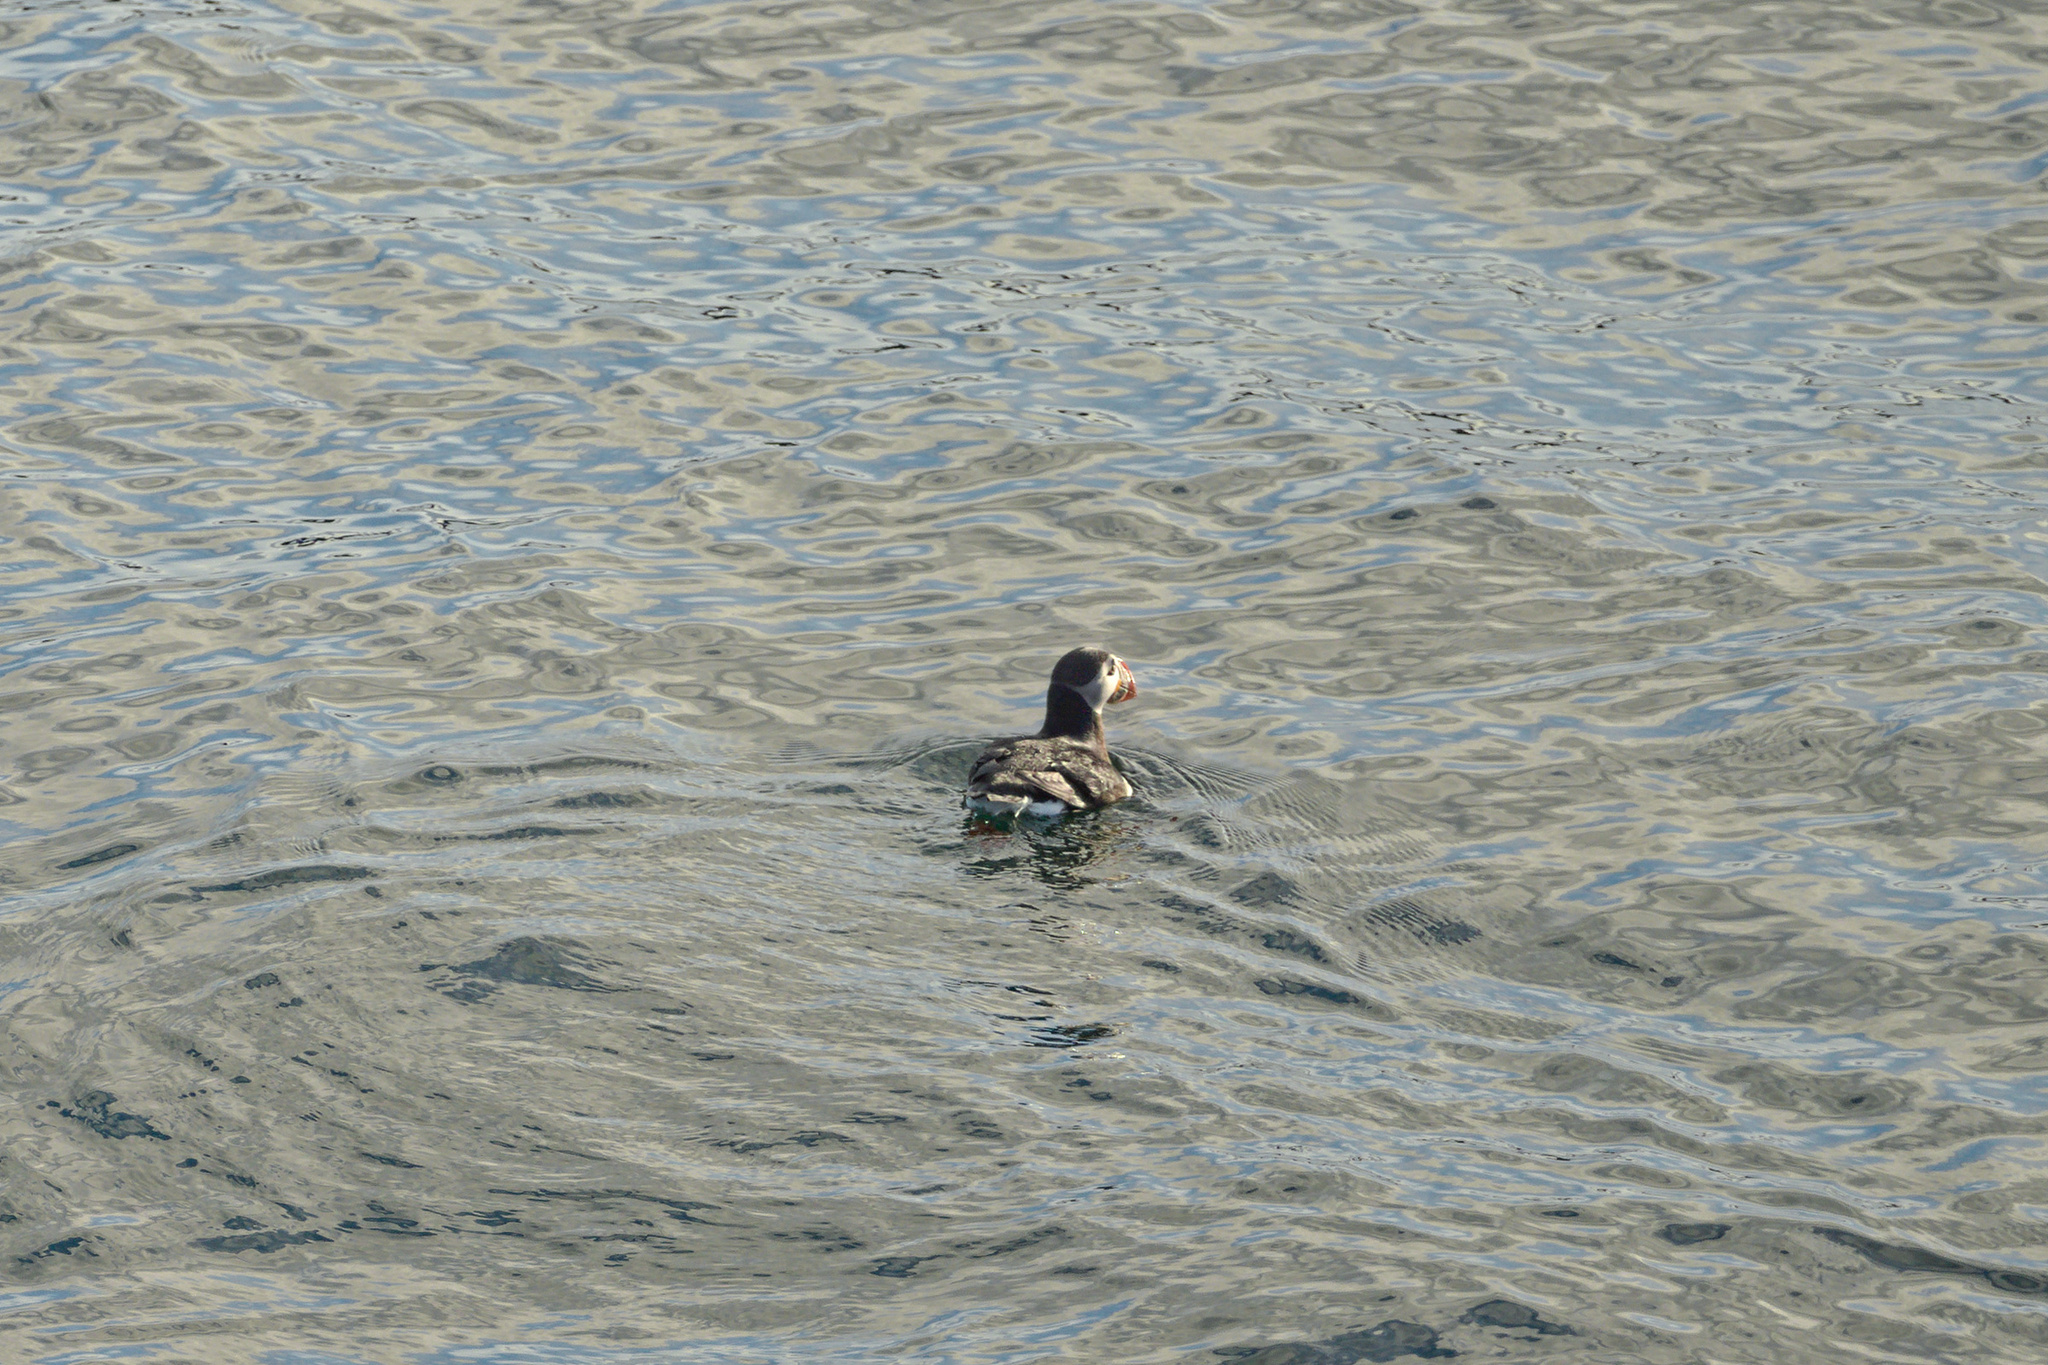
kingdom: Animalia
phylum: Chordata
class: Aves
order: Charadriiformes
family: Alcidae
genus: Fratercula
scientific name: Fratercula arctica
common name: Atlantic puffin
